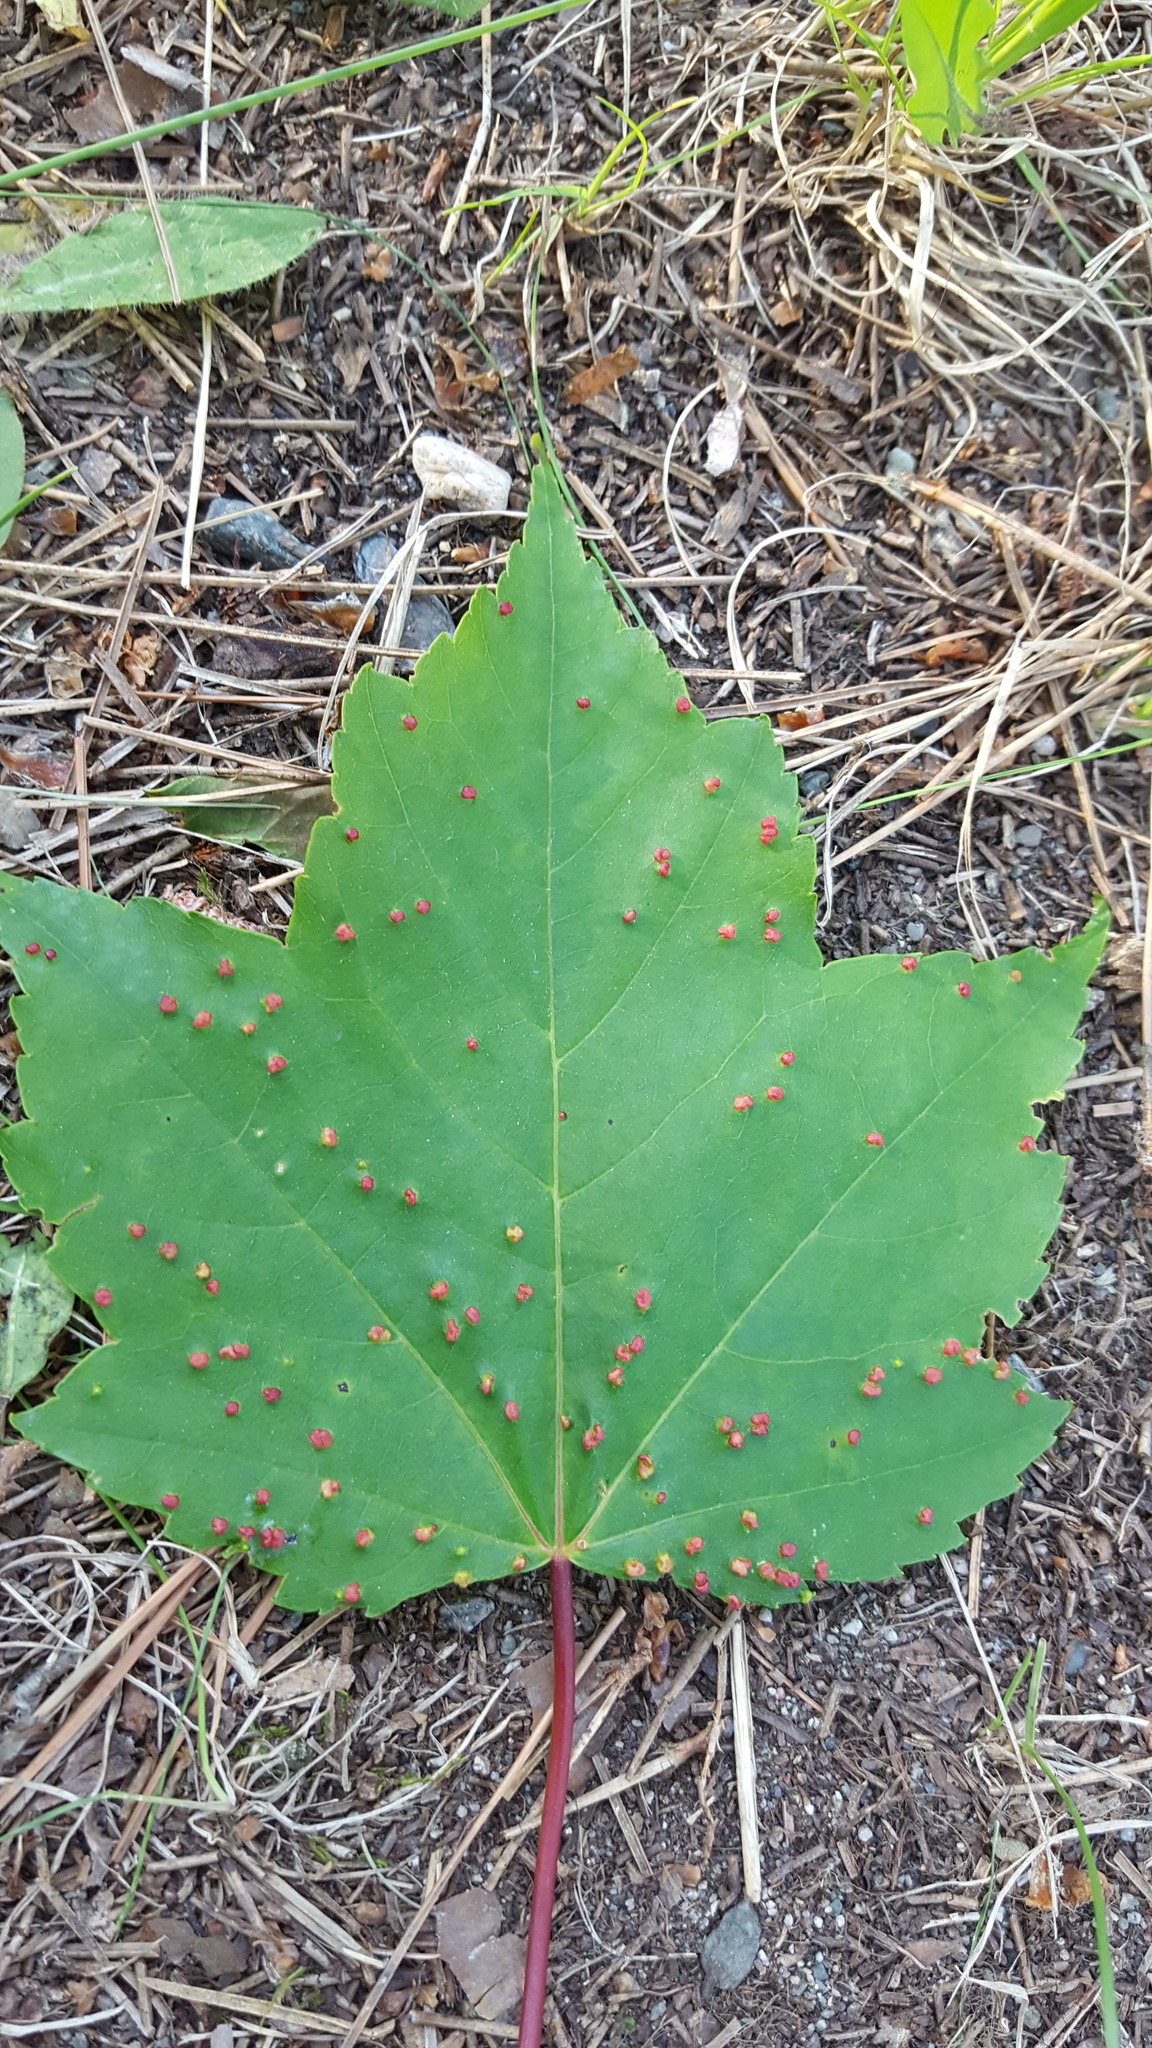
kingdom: Animalia
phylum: Arthropoda
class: Arachnida
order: Trombidiformes
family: Eriophyidae
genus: Vasates
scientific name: Vasates quadripedes
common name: Maple bladder gall mite
